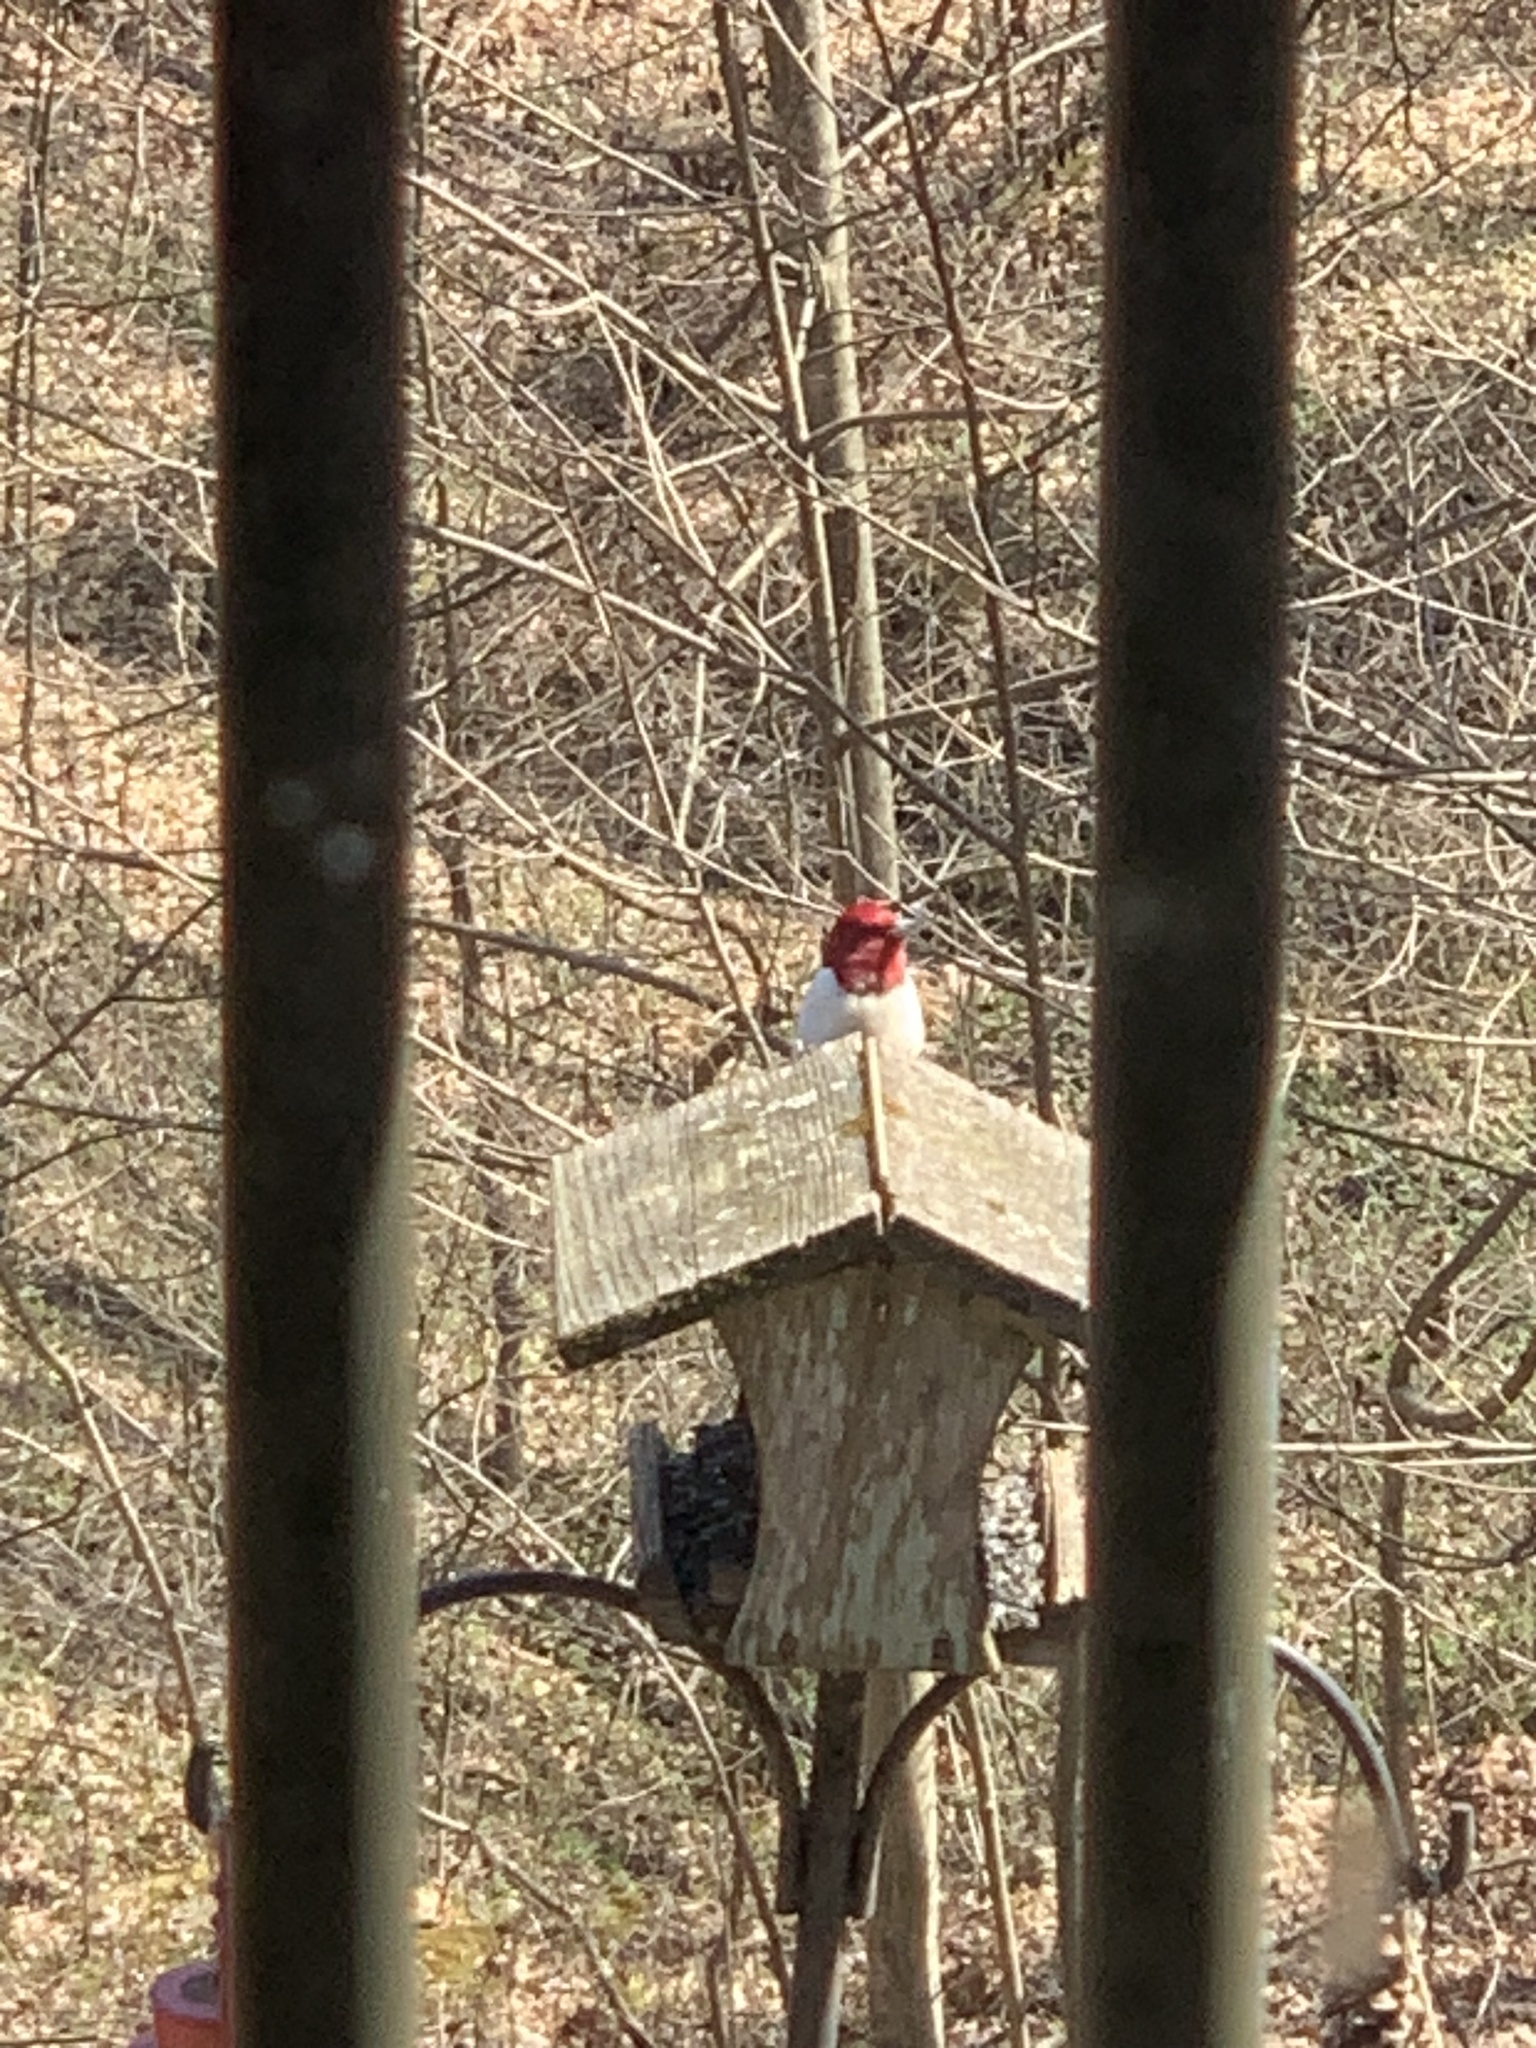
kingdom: Animalia
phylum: Chordata
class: Aves
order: Piciformes
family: Picidae
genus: Melanerpes
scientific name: Melanerpes erythrocephalus
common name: Red-headed woodpecker
